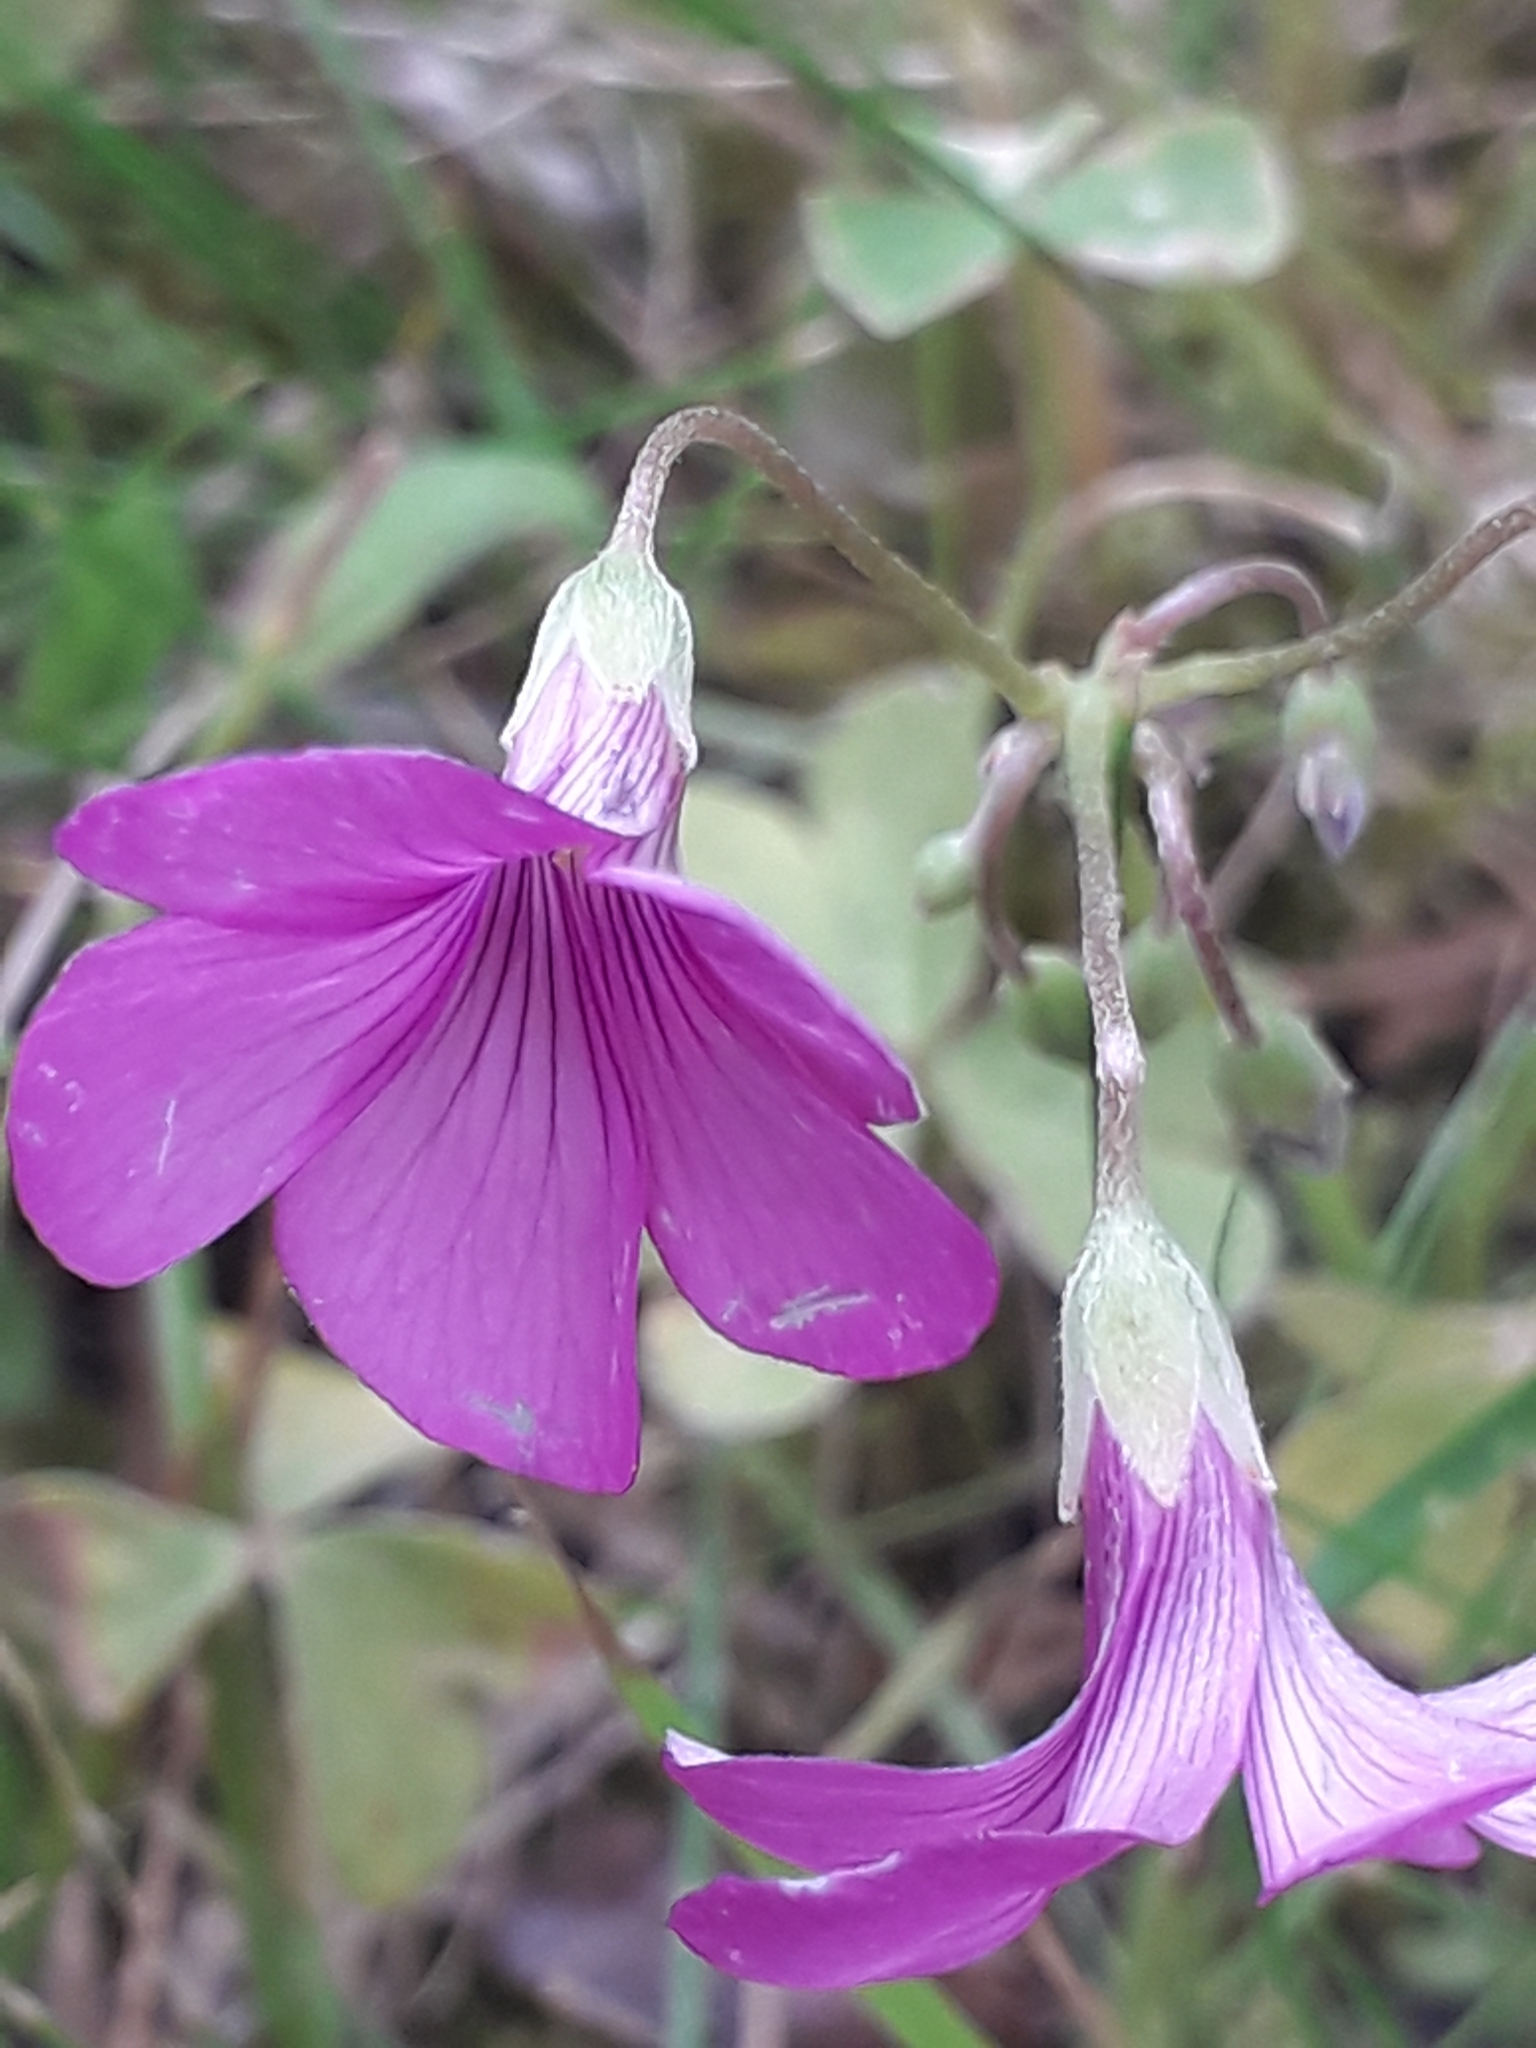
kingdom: Plantae
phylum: Tracheophyta
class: Magnoliopsida
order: Oxalidales
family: Oxalidaceae
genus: Oxalis
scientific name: Oxalis articulata
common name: Pink-sorrel
